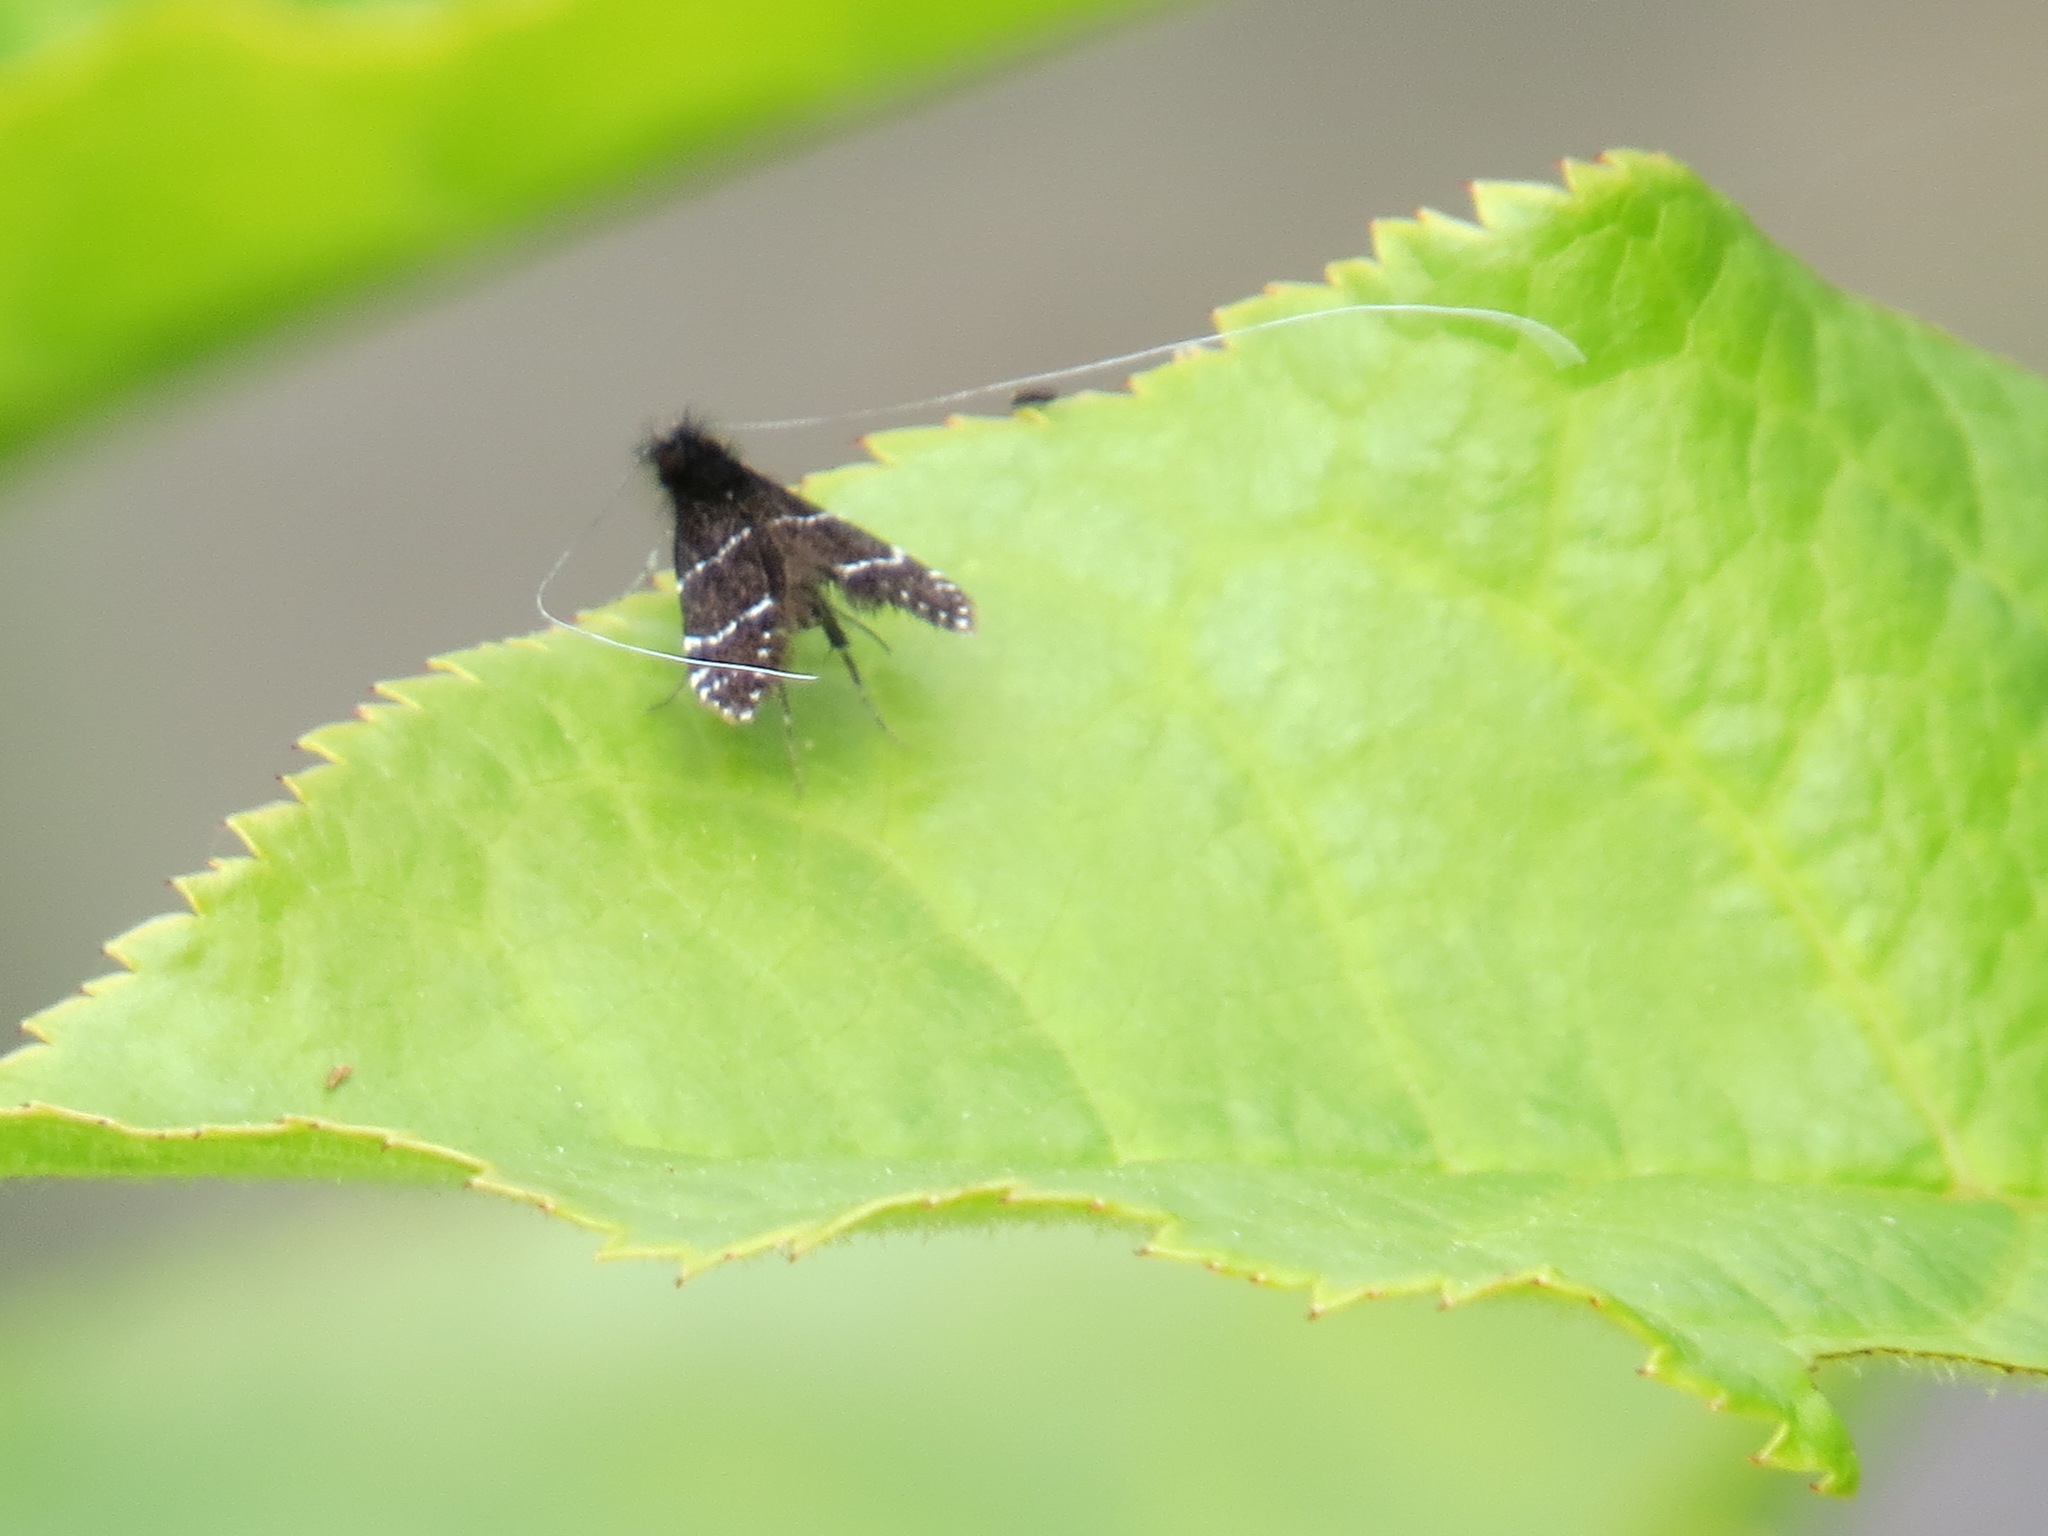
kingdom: Animalia
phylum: Arthropoda
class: Insecta
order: Lepidoptera
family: Adelidae
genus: Adela
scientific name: Adela septentrionella
